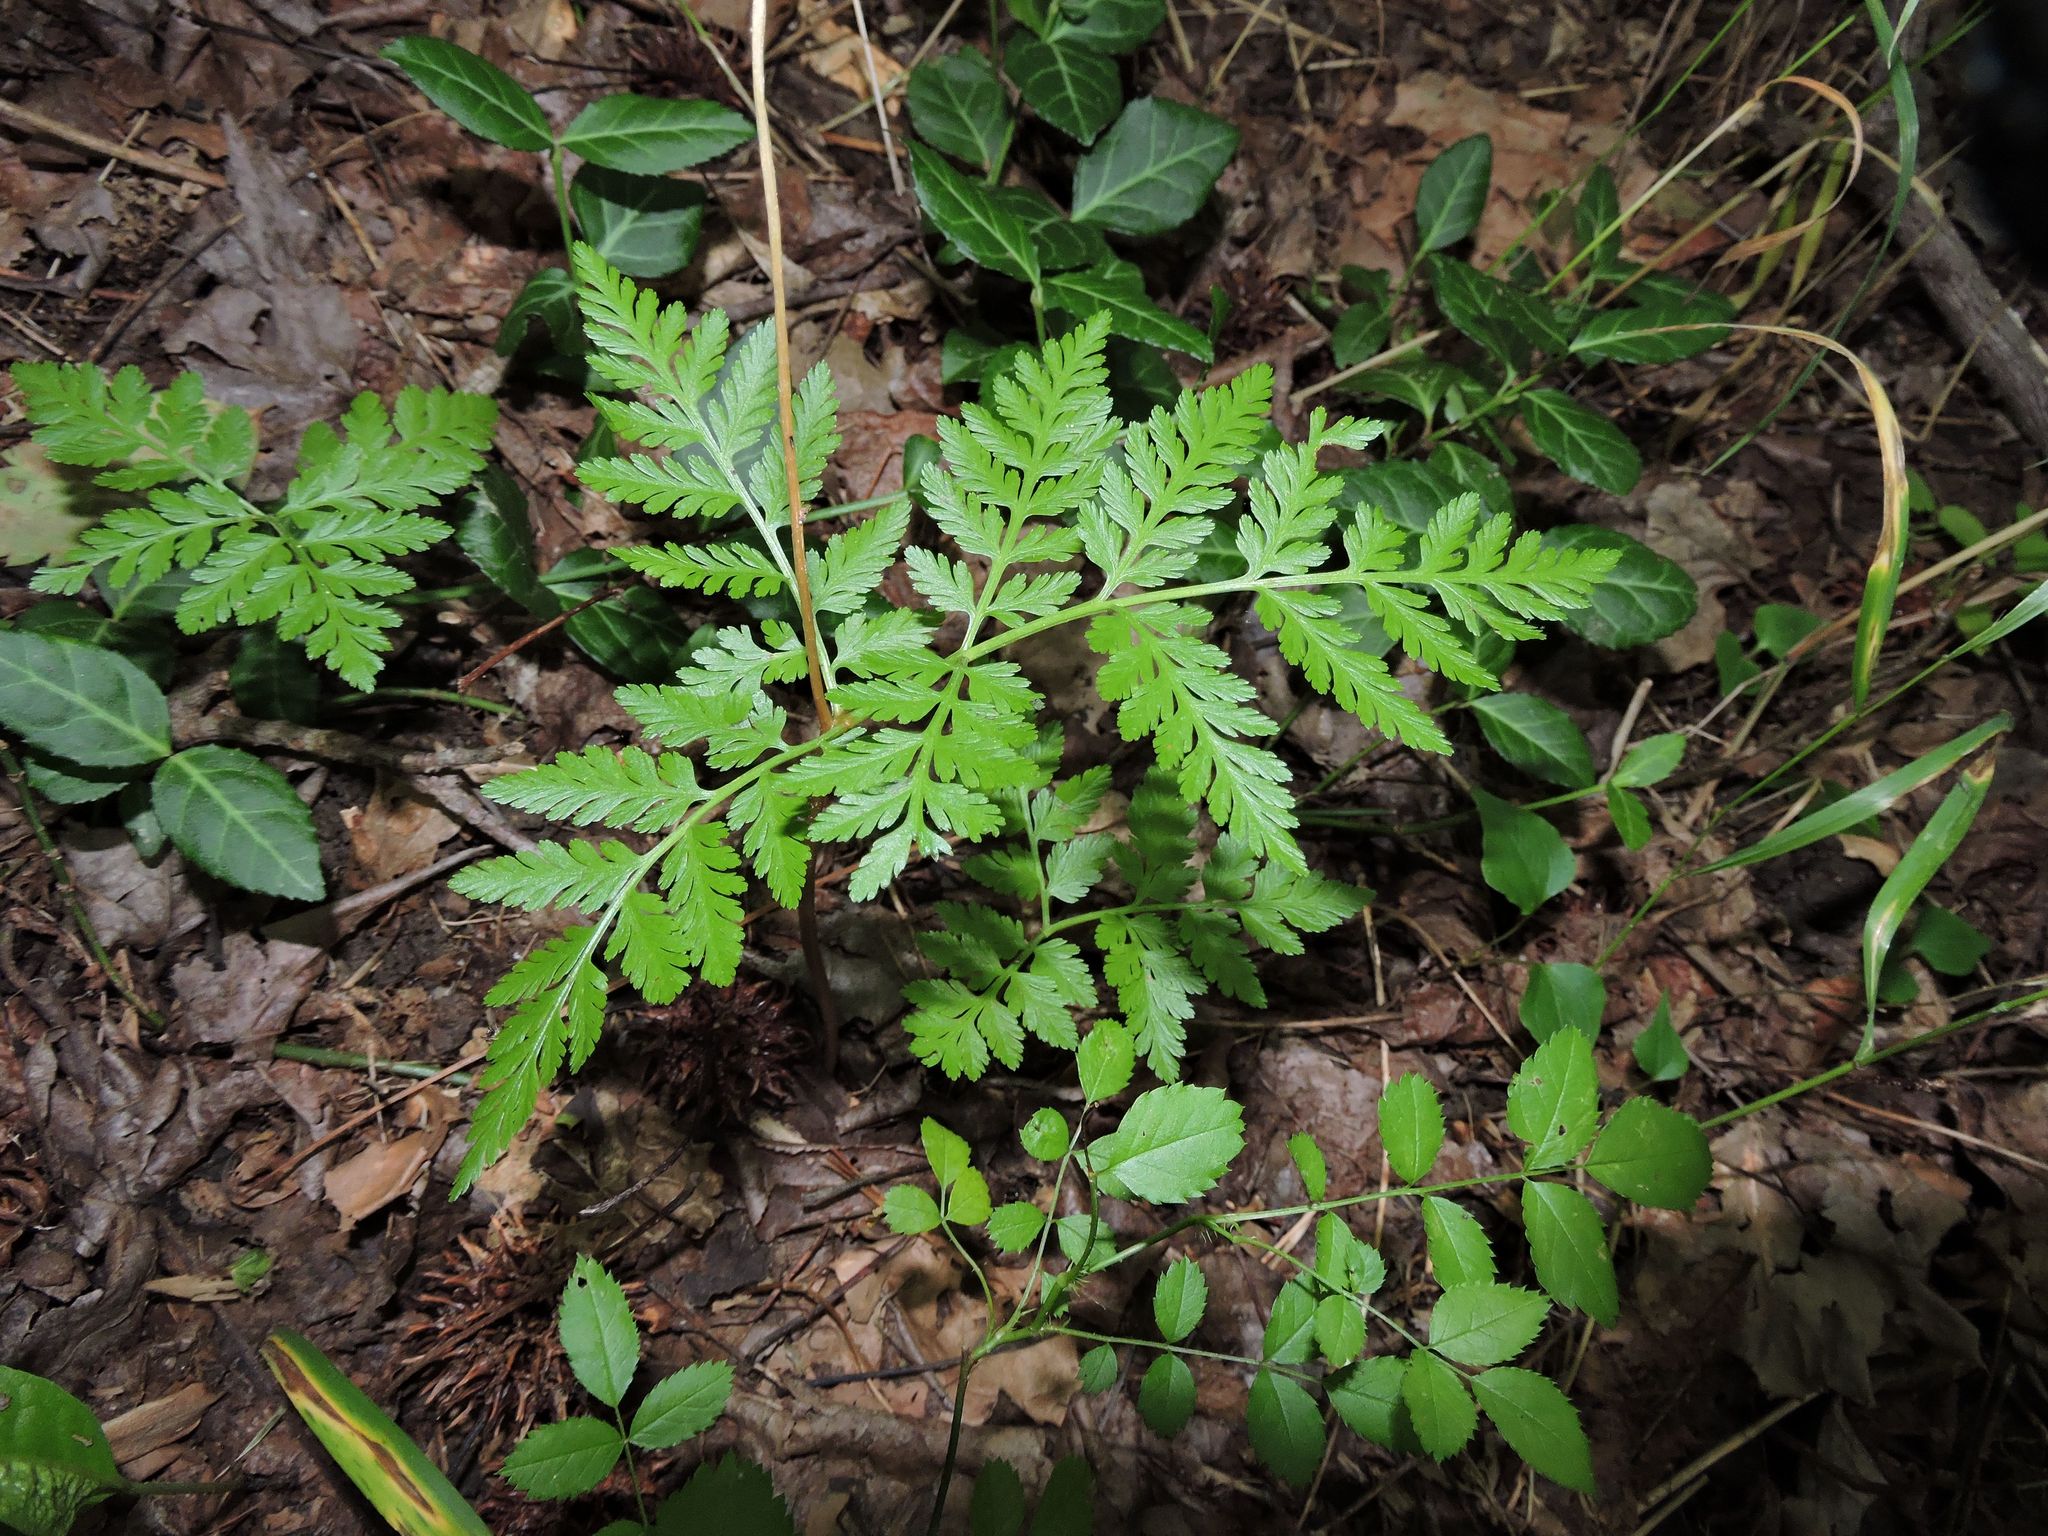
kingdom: Plantae
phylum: Tracheophyta
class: Polypodiopsida
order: Ophioglossales
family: Ophioglossaceae
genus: Botrypus
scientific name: Botrypus virginianus
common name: Common grapefern
